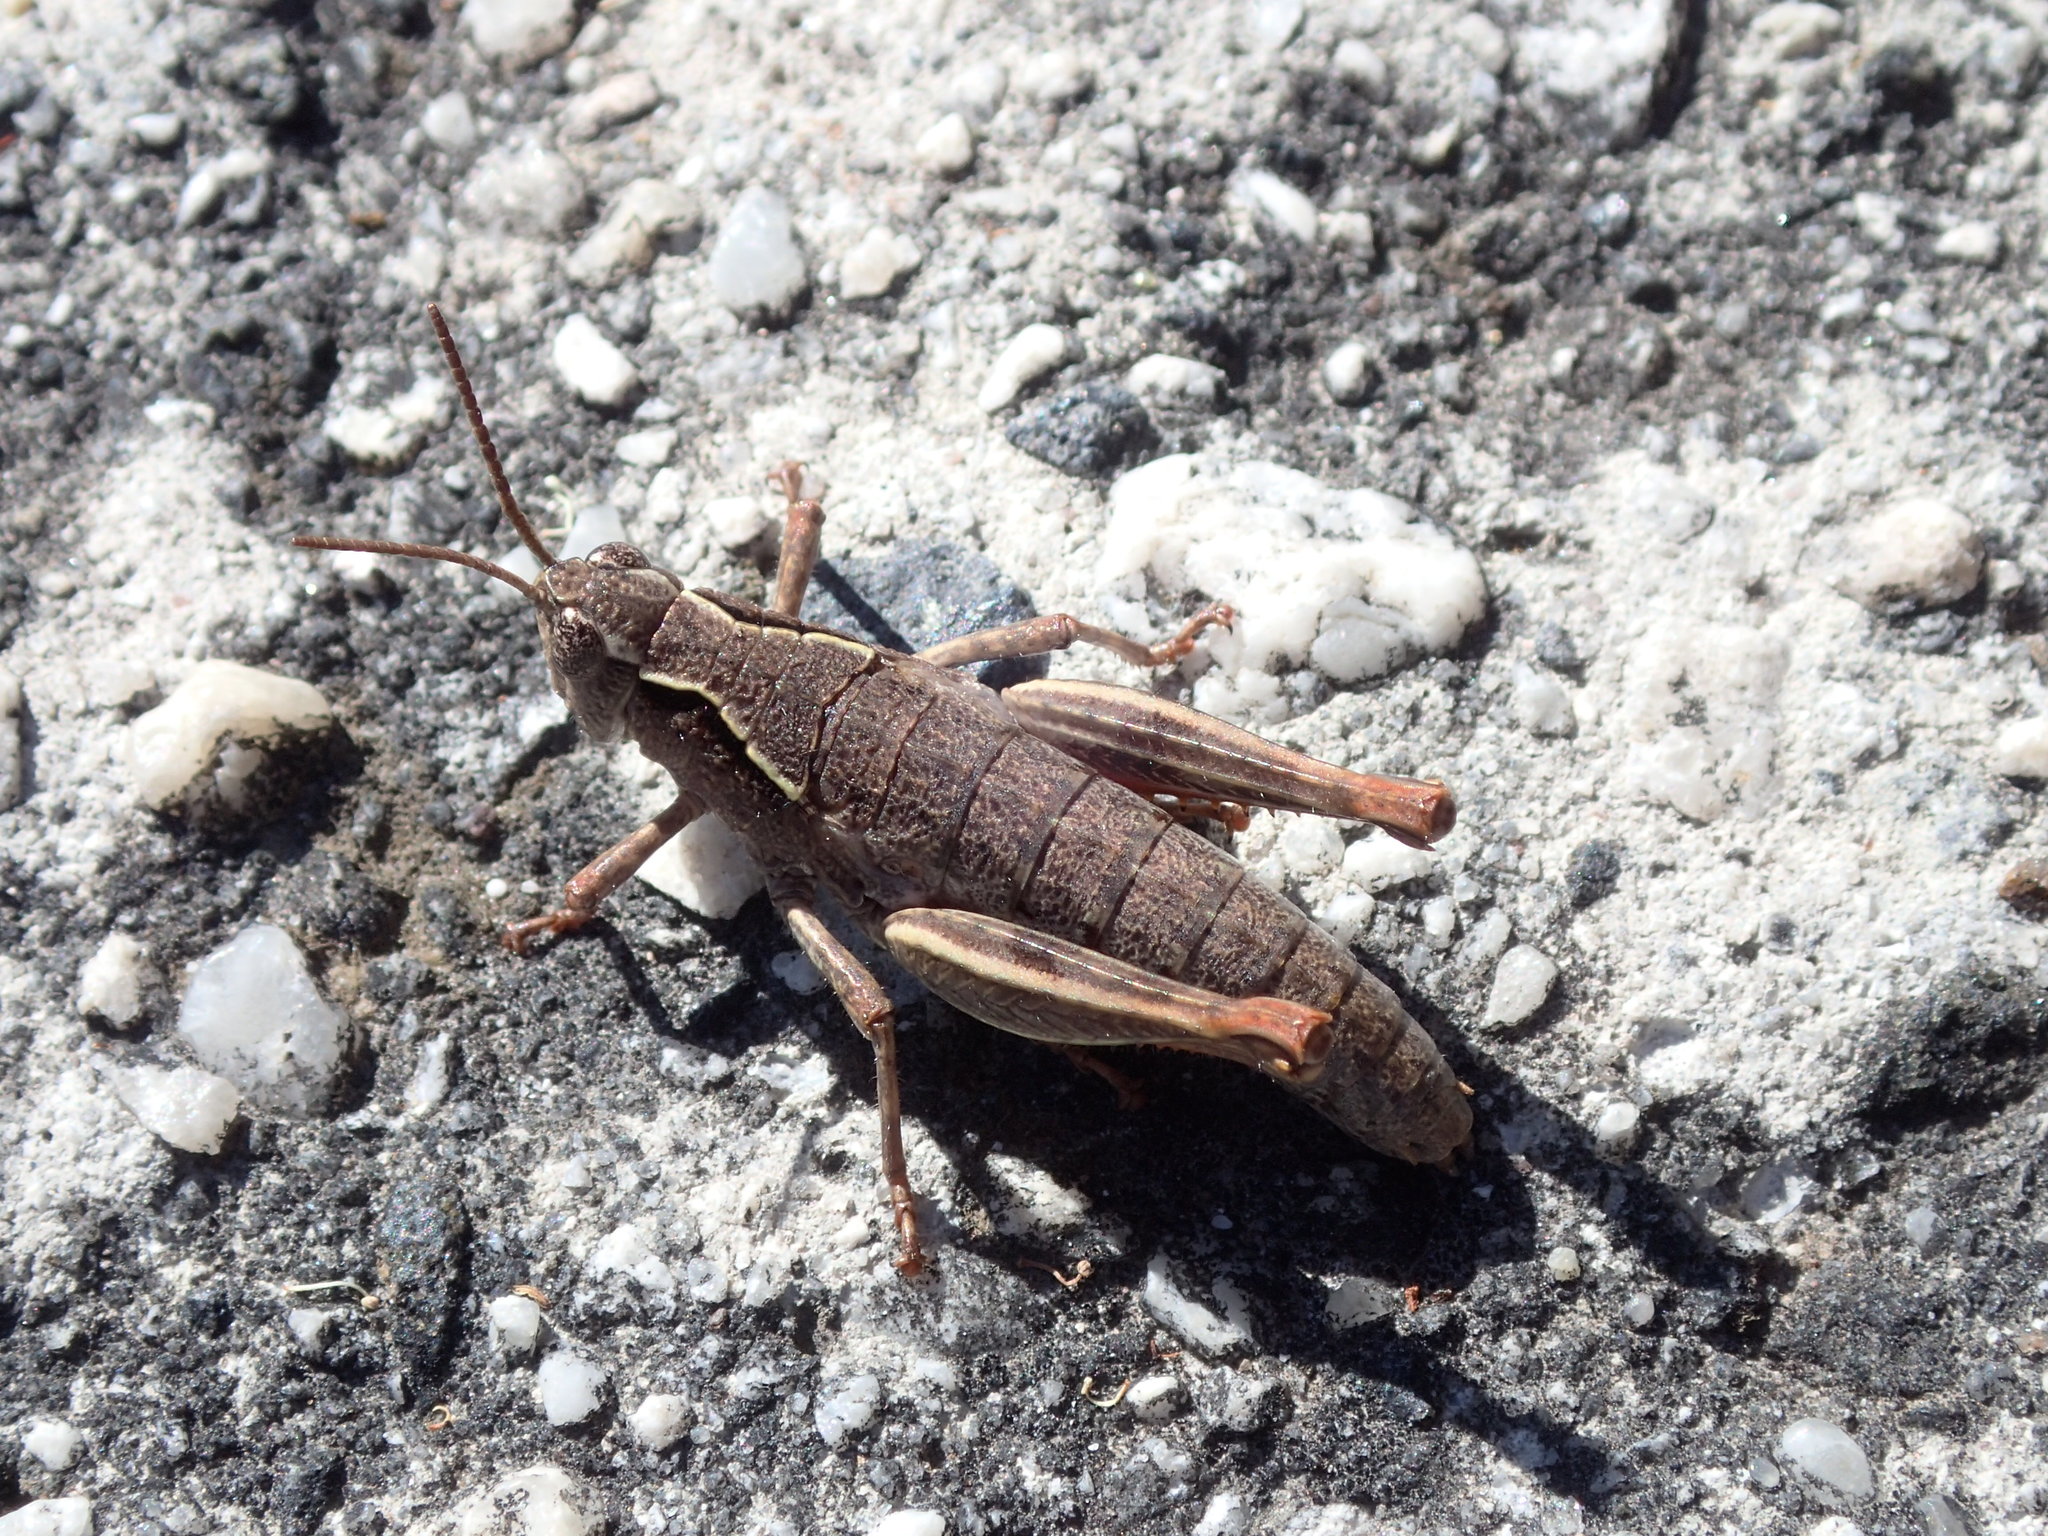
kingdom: Animalia
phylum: Arthropoda
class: Insecta
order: Orthoptera
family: Acrididae
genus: Tasmaniacris
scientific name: Tasmaniacris tasmaniensis
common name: Tasmanian grasshopper
